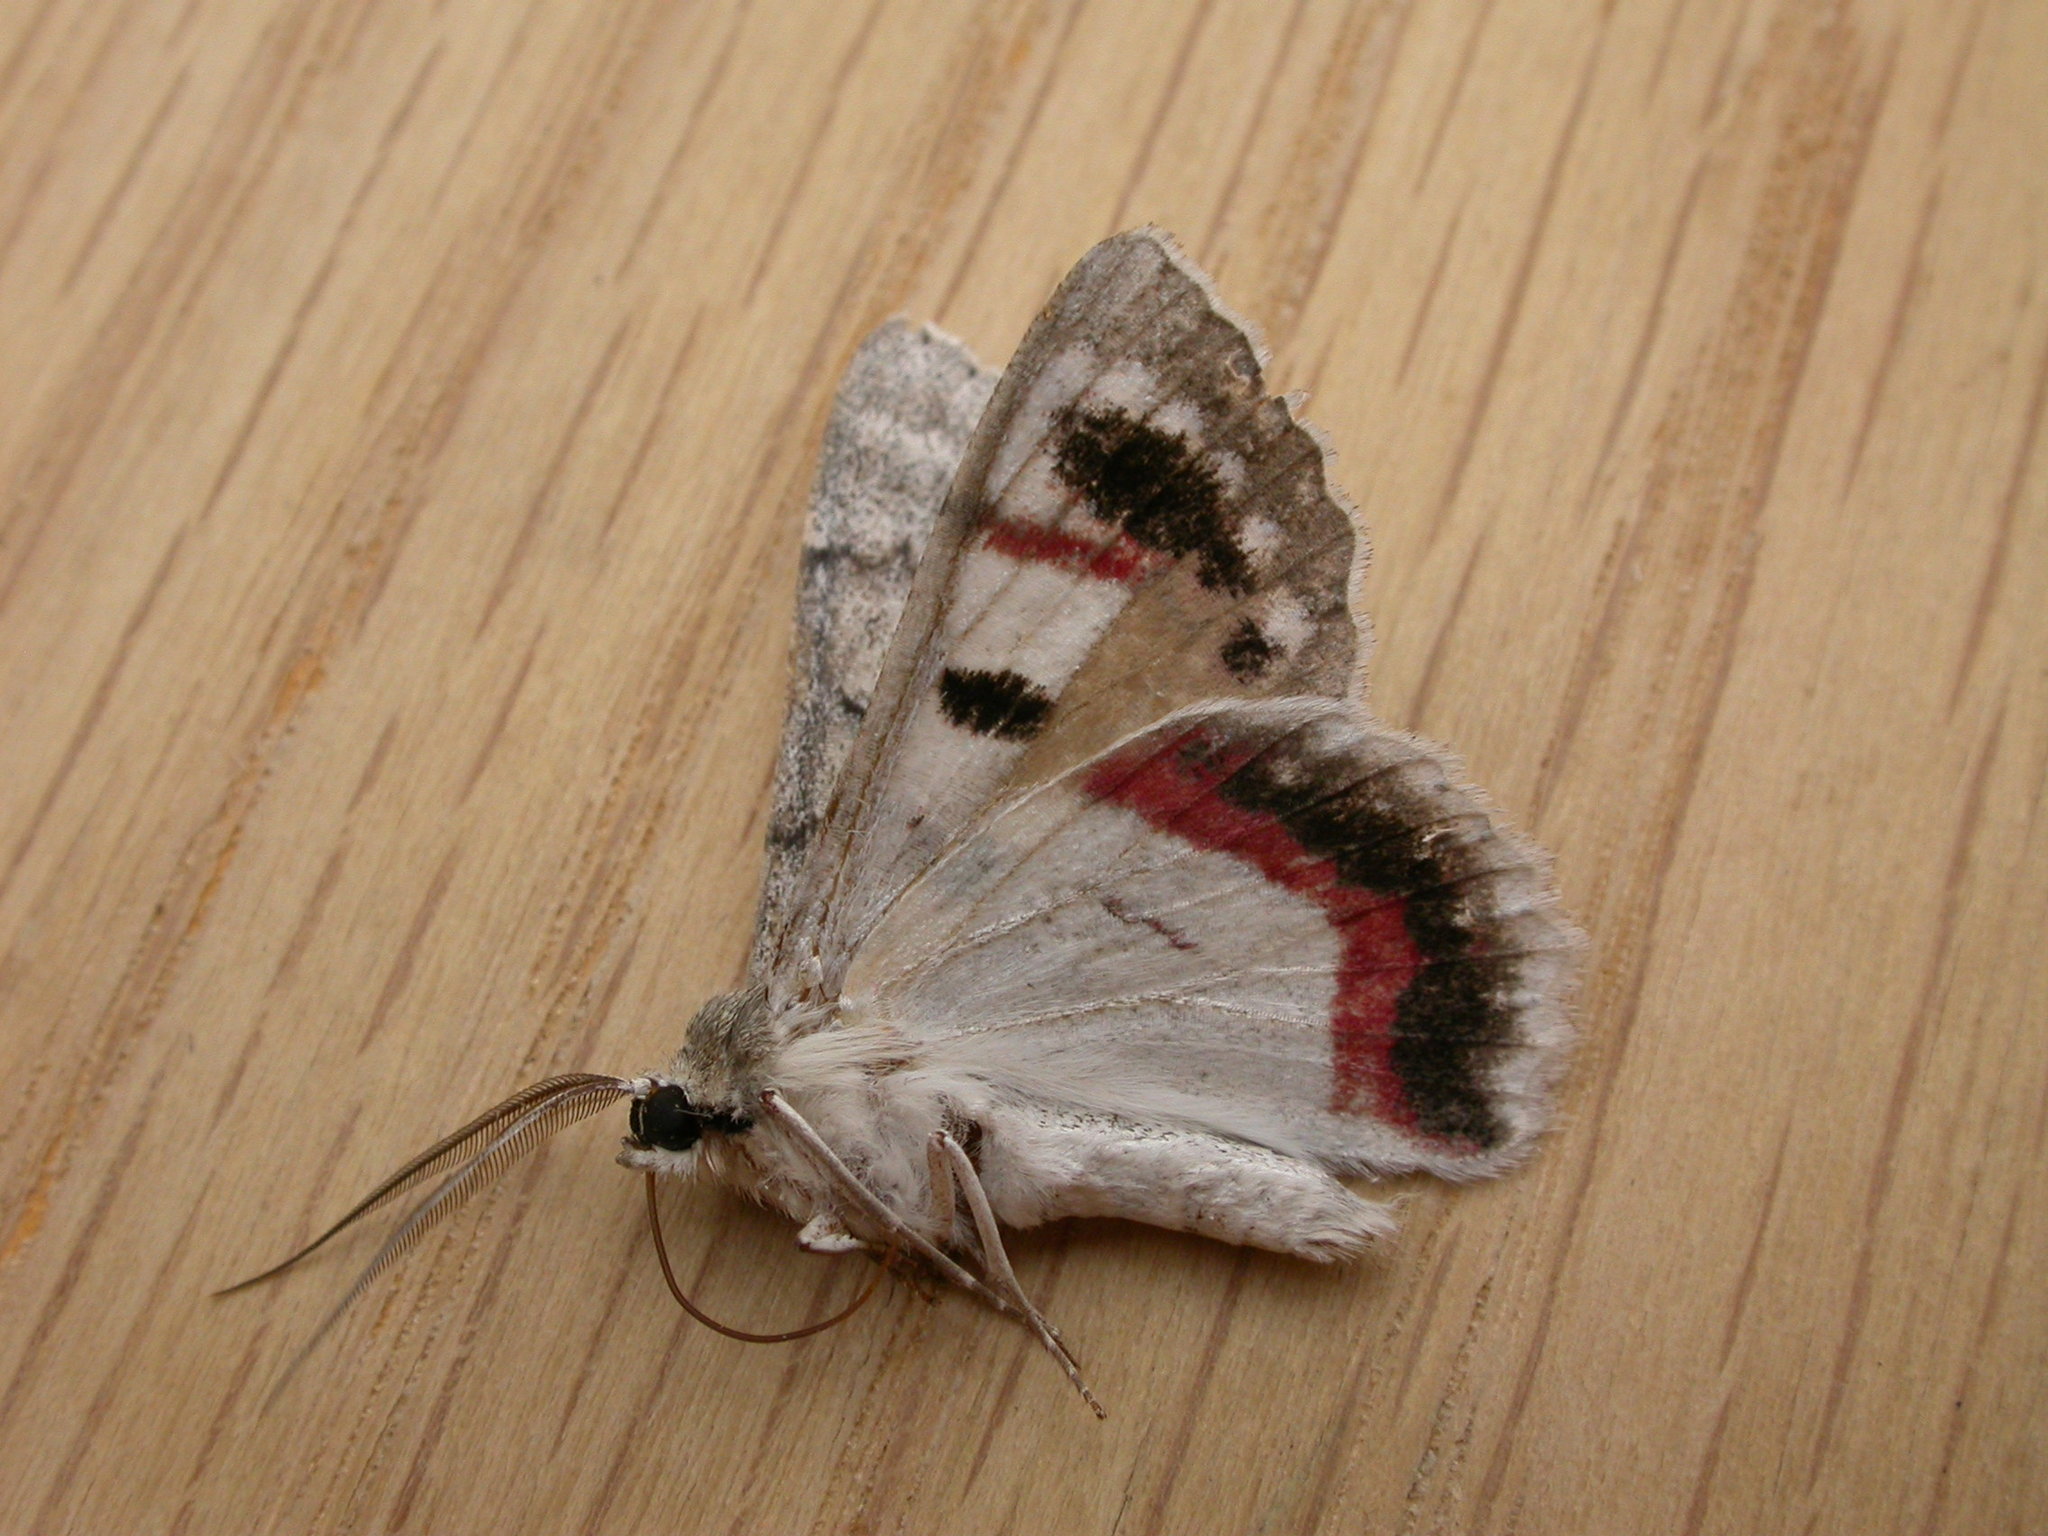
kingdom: Animalia
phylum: Arthropoda
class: Insecta
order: Lepidoptera
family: Geometridae
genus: Crypsiphona
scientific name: Crypsiphona ocultaria
